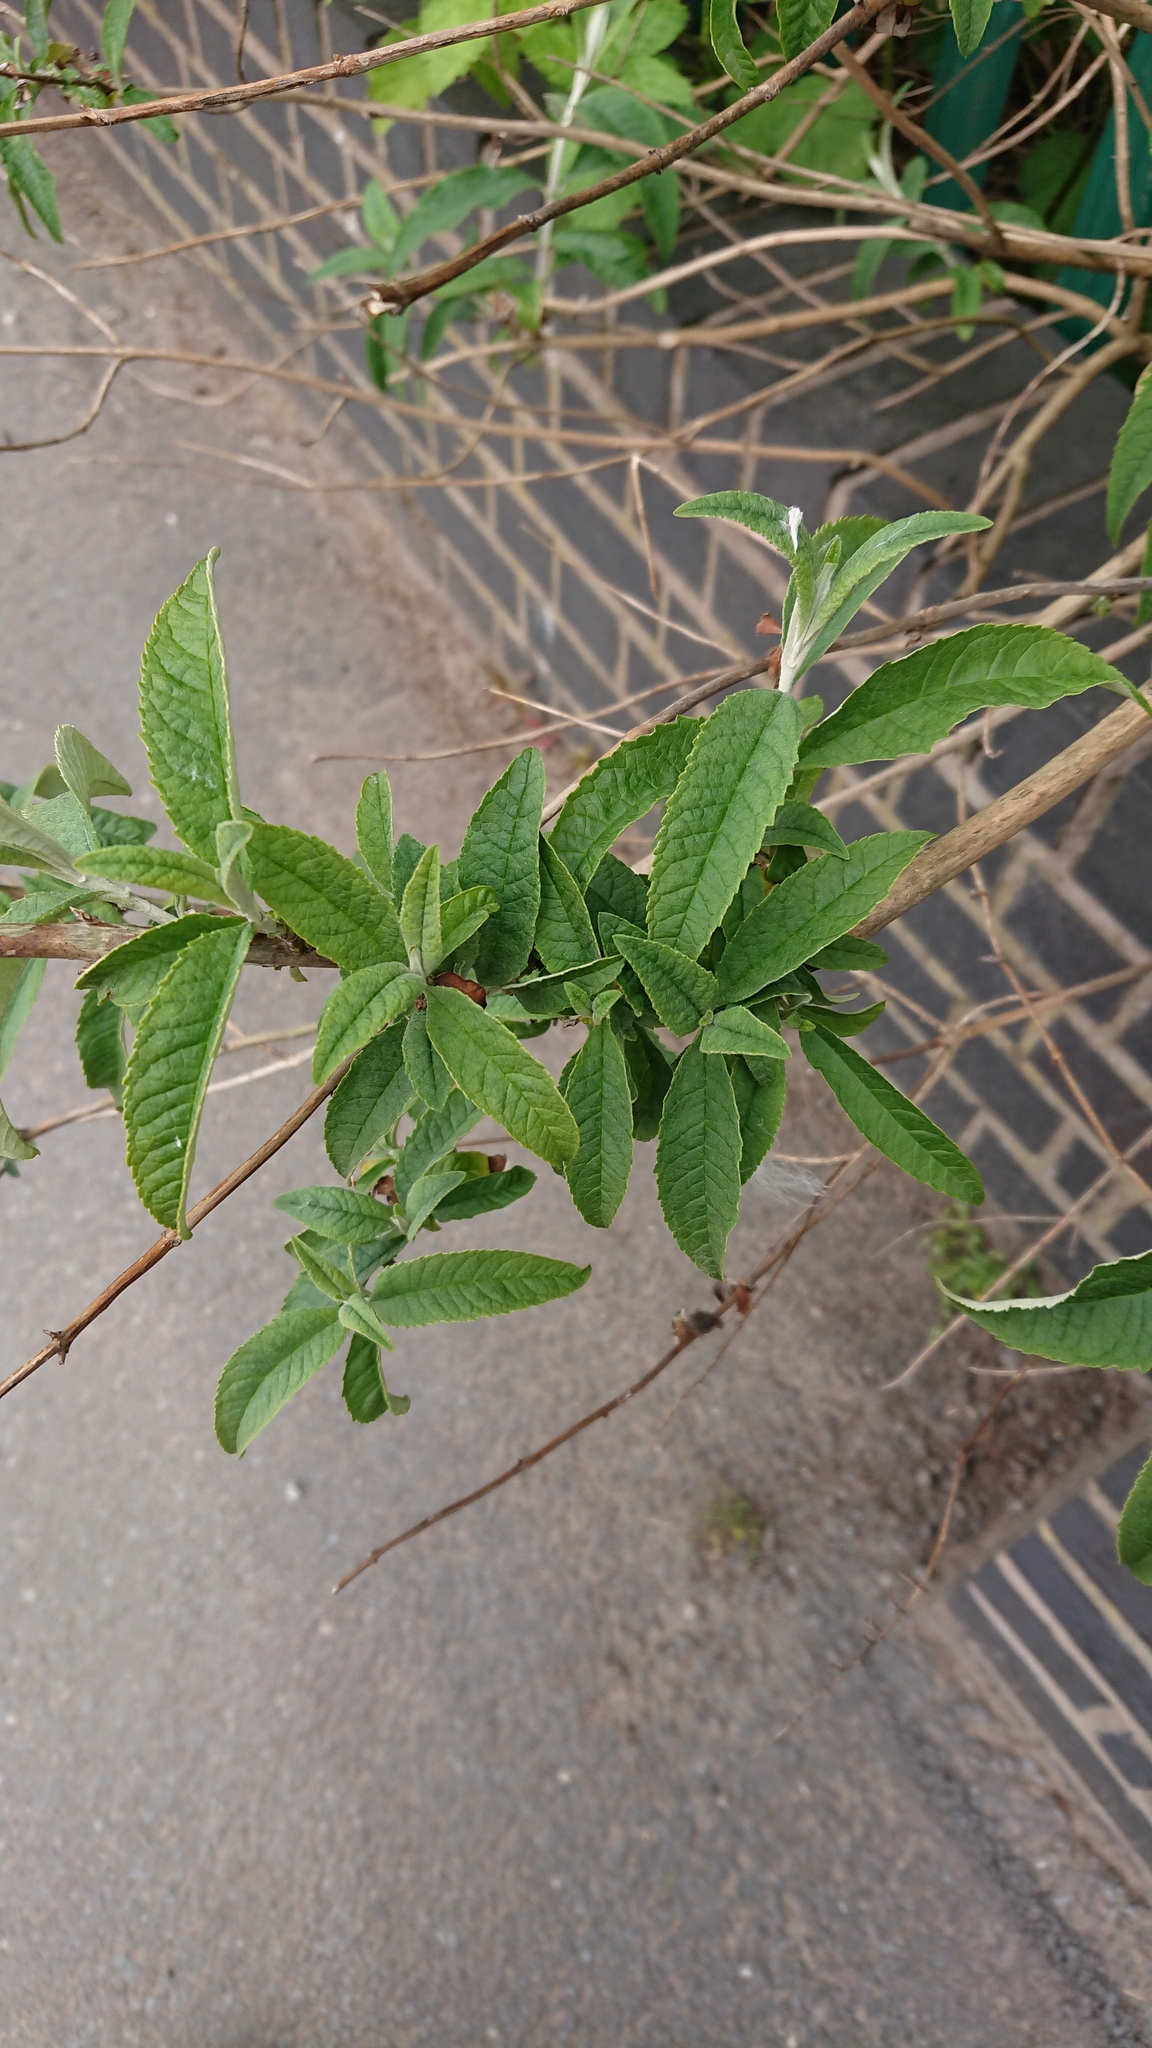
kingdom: Plantae
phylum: Tracheophyta
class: Magnoliopsida
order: Lamiales
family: Scrophulariaceae
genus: Buddleja
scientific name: Buddleja davidii
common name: Butterfly-bush
